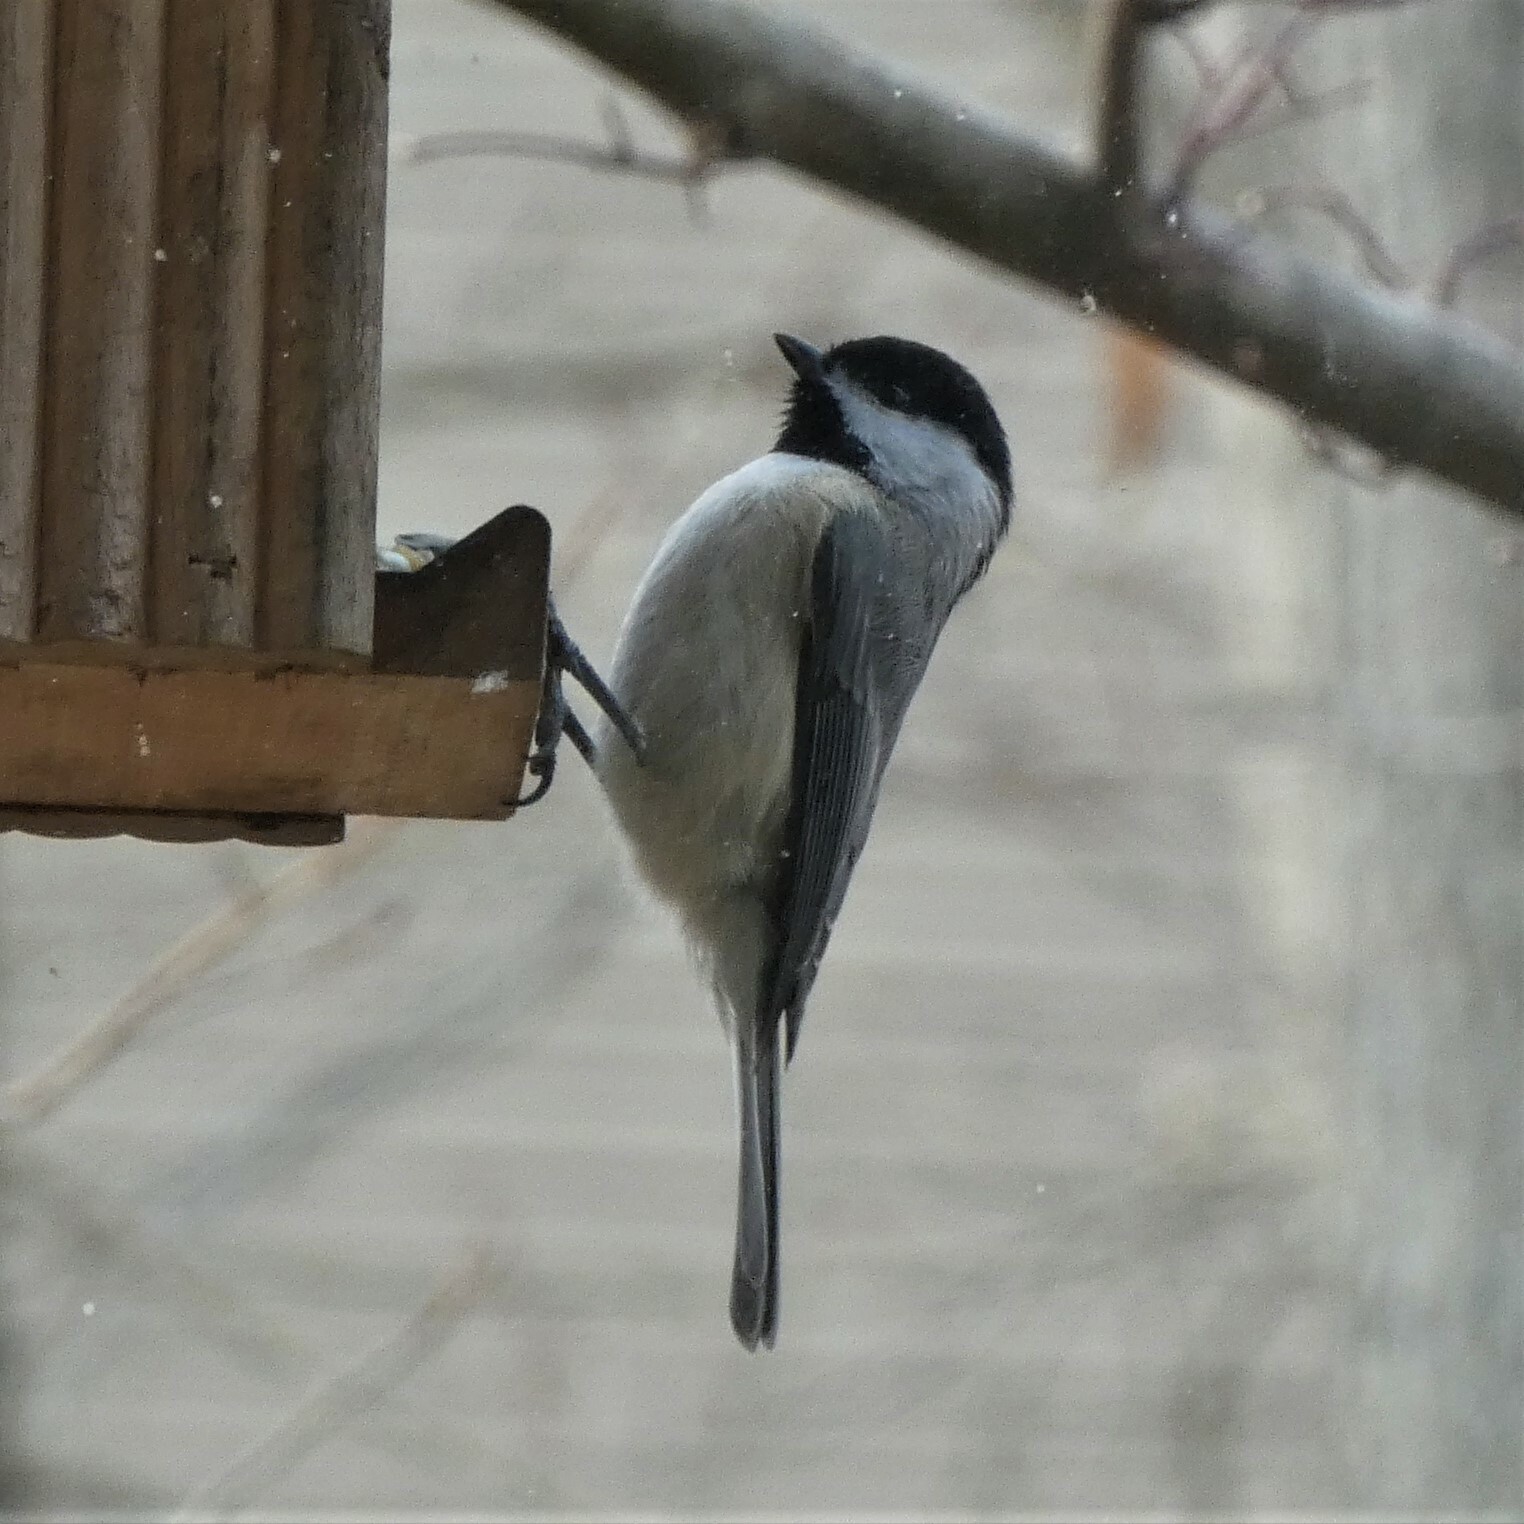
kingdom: Animalia
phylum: Chordata
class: Aves
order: Passeriformes
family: Paridae
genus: Poecile
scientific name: Poecile carolinensis
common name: Carolina chickadee
